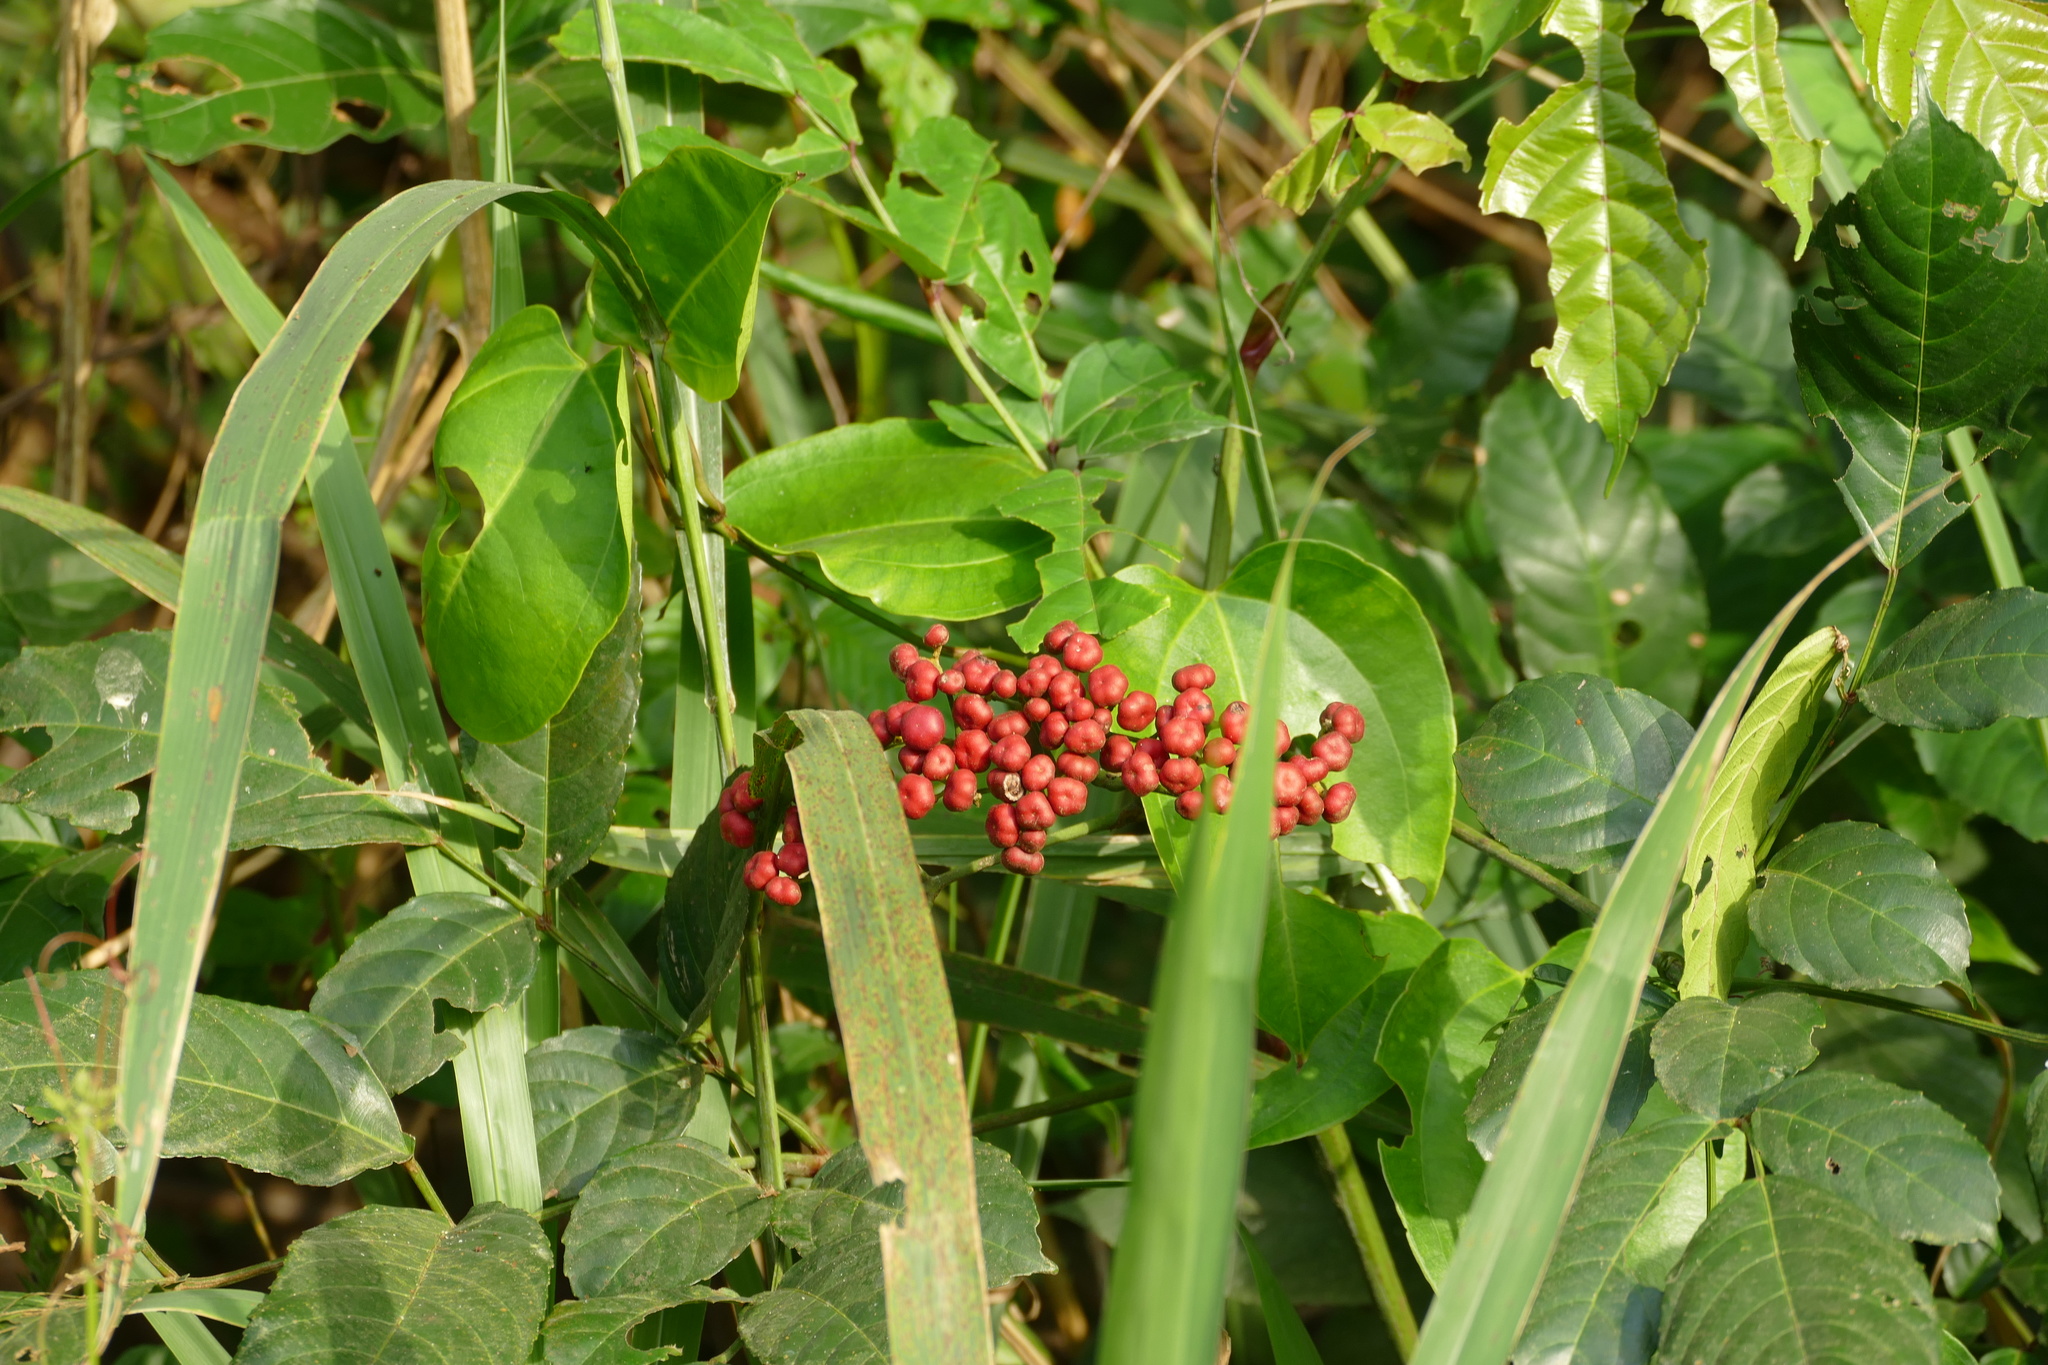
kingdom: Plantae
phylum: Tracheophyta
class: Magnoliopsida
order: Vitales
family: Vitaceae
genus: Leea
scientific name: Leea guineensis
